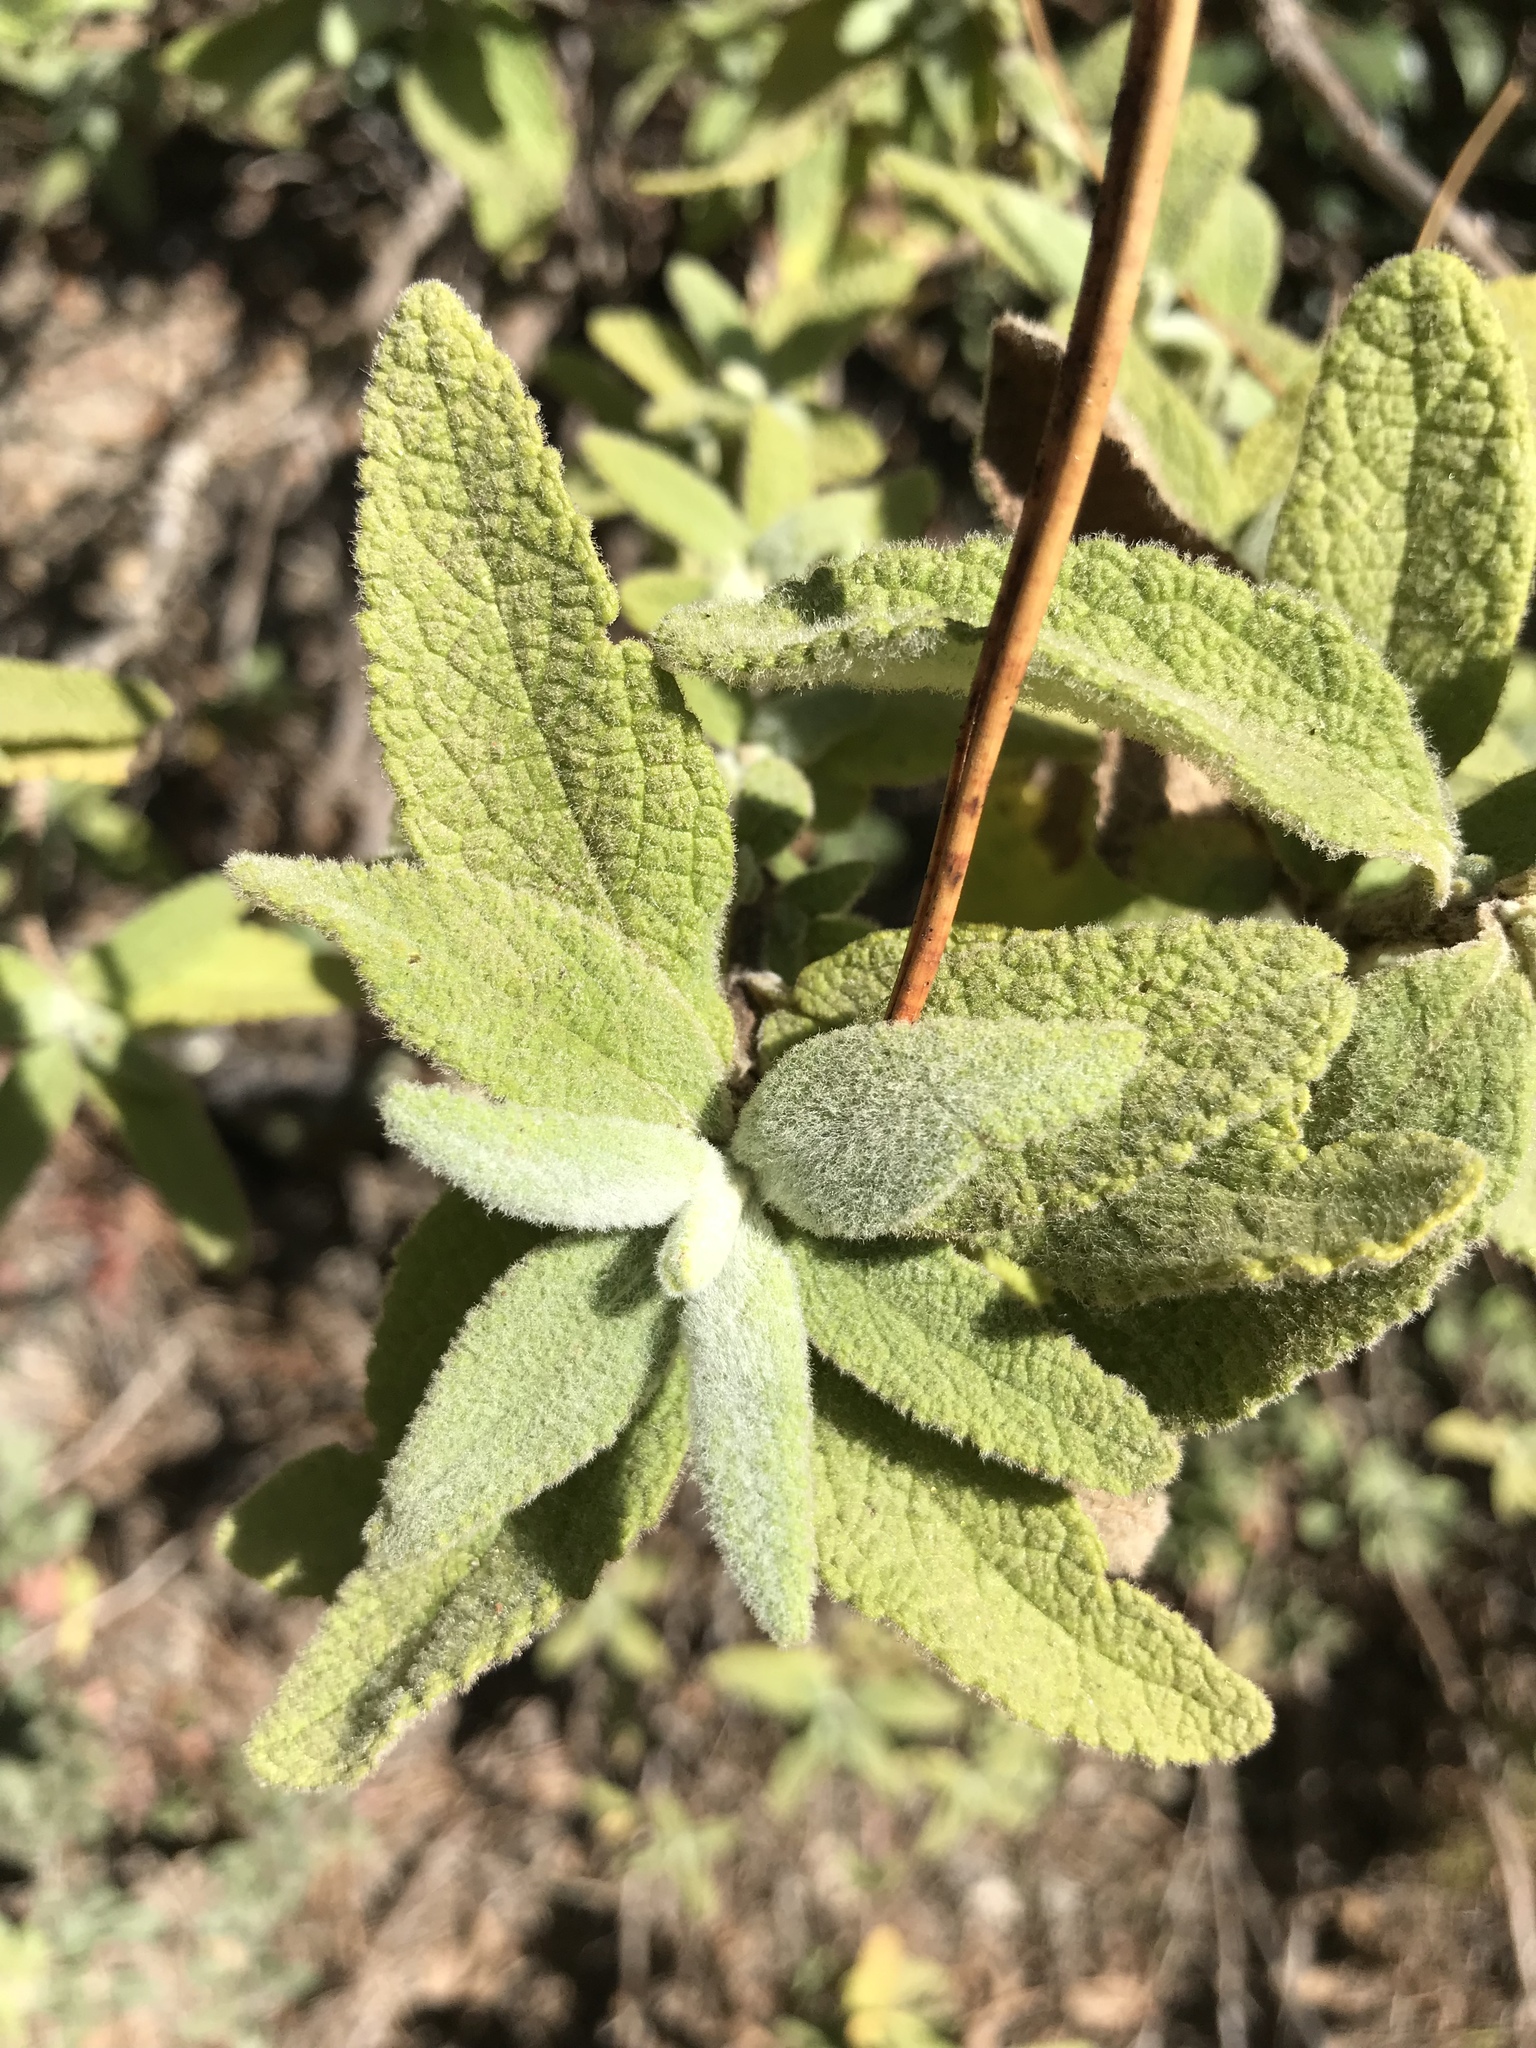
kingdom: Plantae
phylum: Tracheophyta
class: Magnoliopsida
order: Lamiales
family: Lamiaceae
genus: Lepechinia
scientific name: Lepechinia calycina
